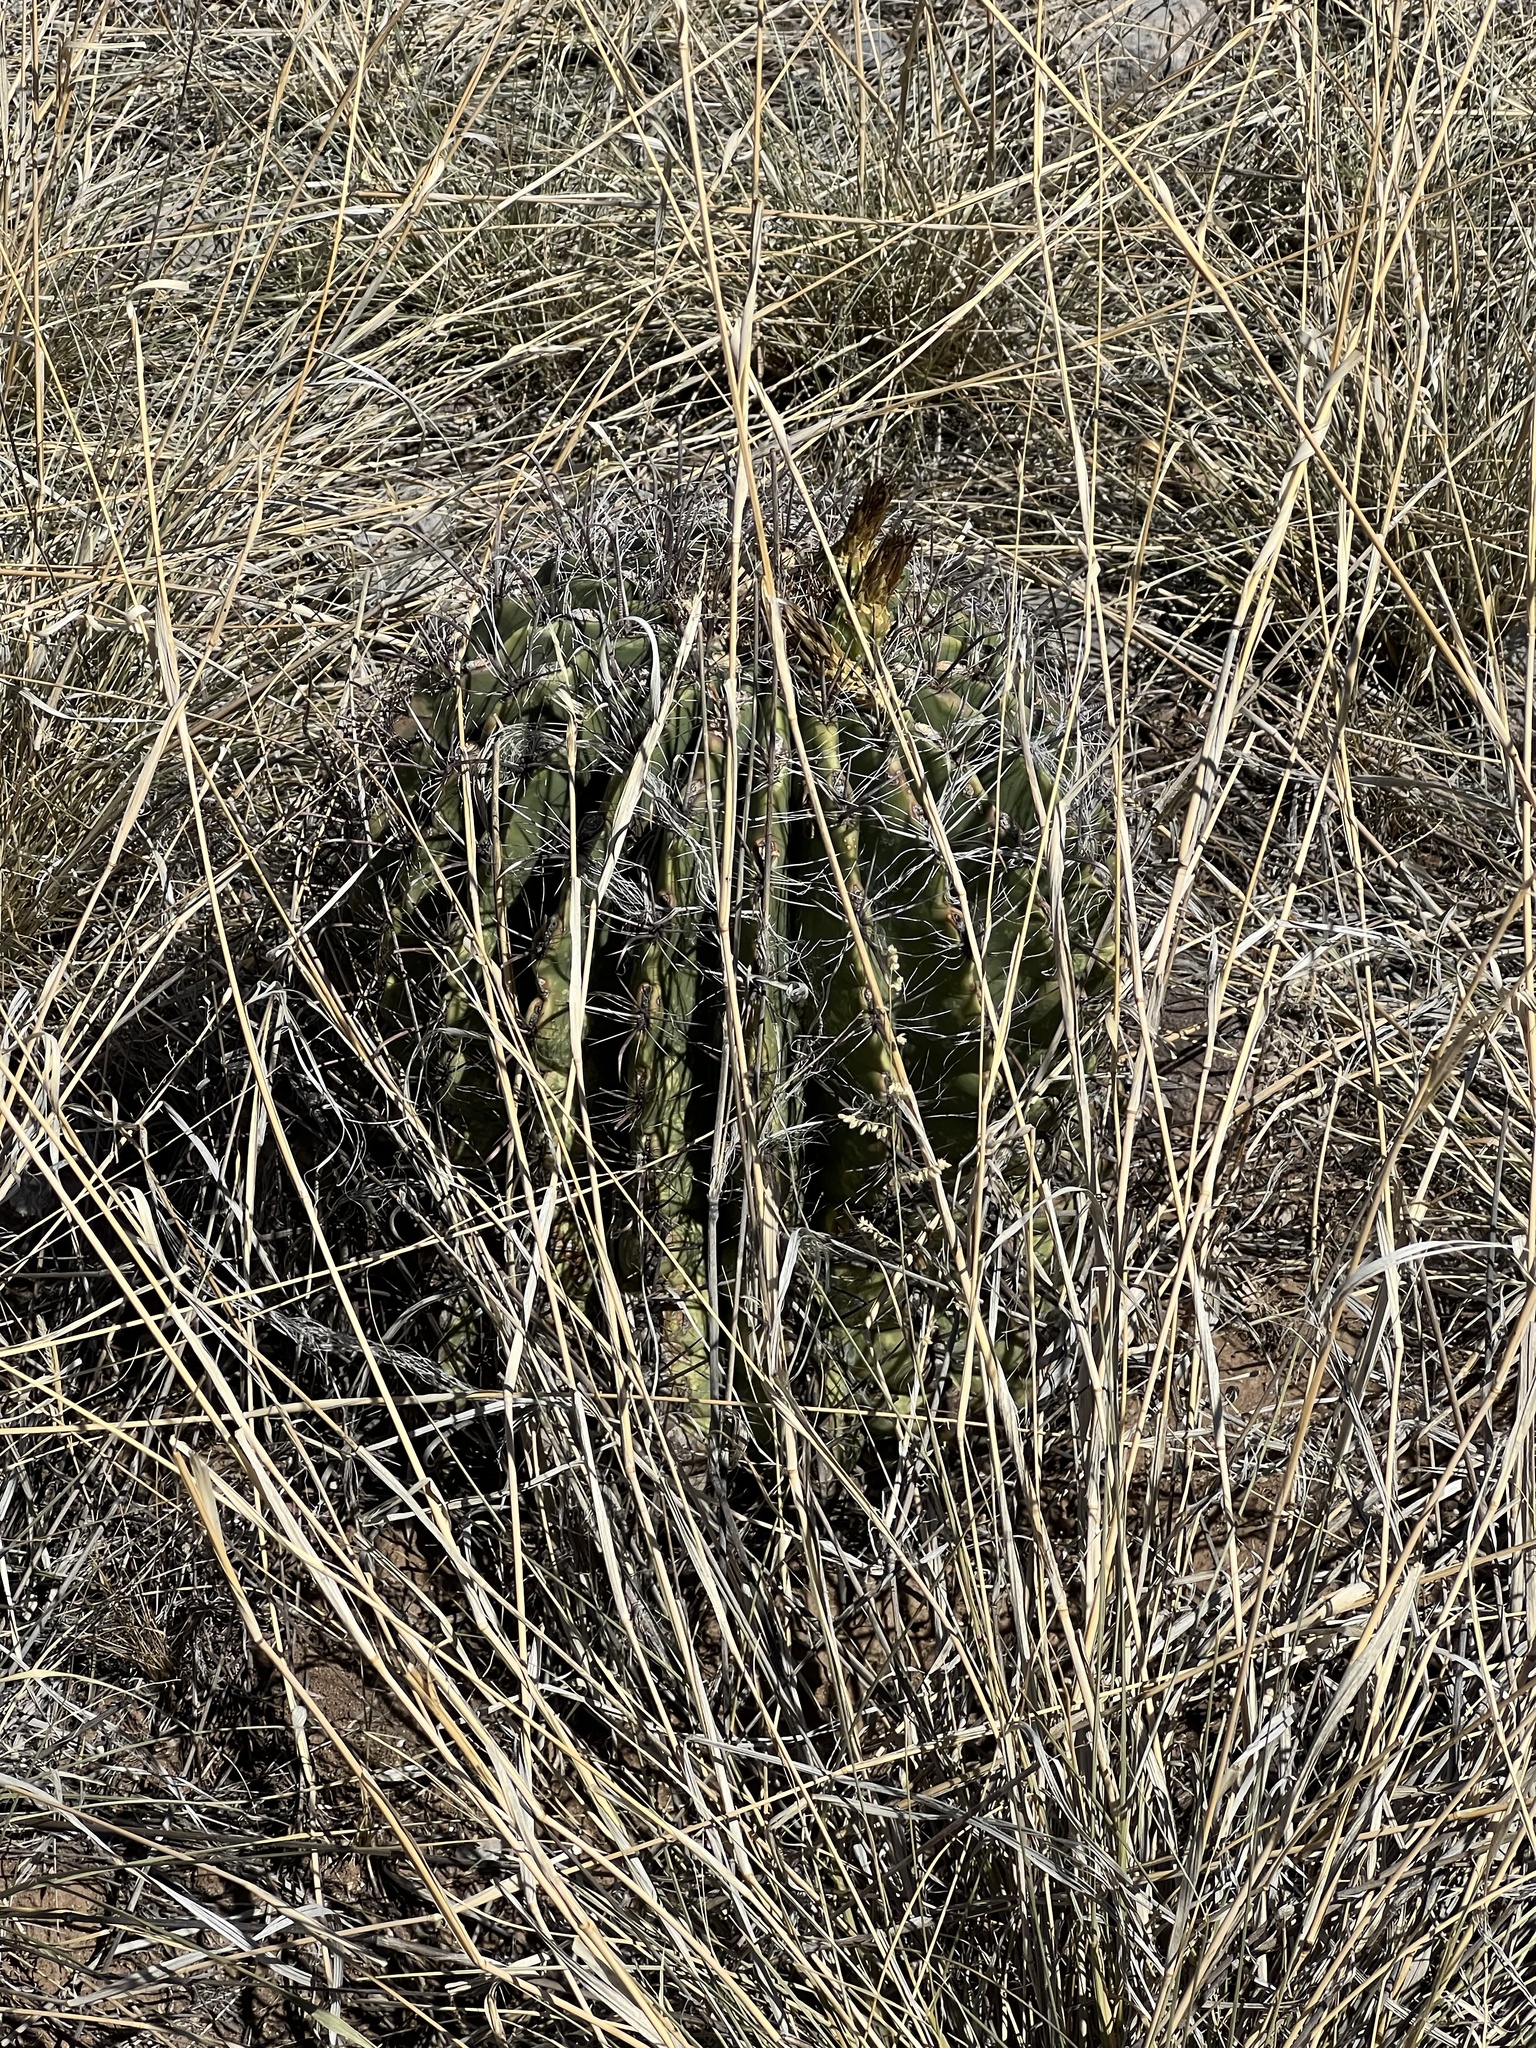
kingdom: Plantae
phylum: Tracheophyta
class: Magnoliopsida
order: Caryophyllales
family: Cactaceae
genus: Ferocactus
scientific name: Ferocactus wislizeni
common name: Candy barrel cactus
